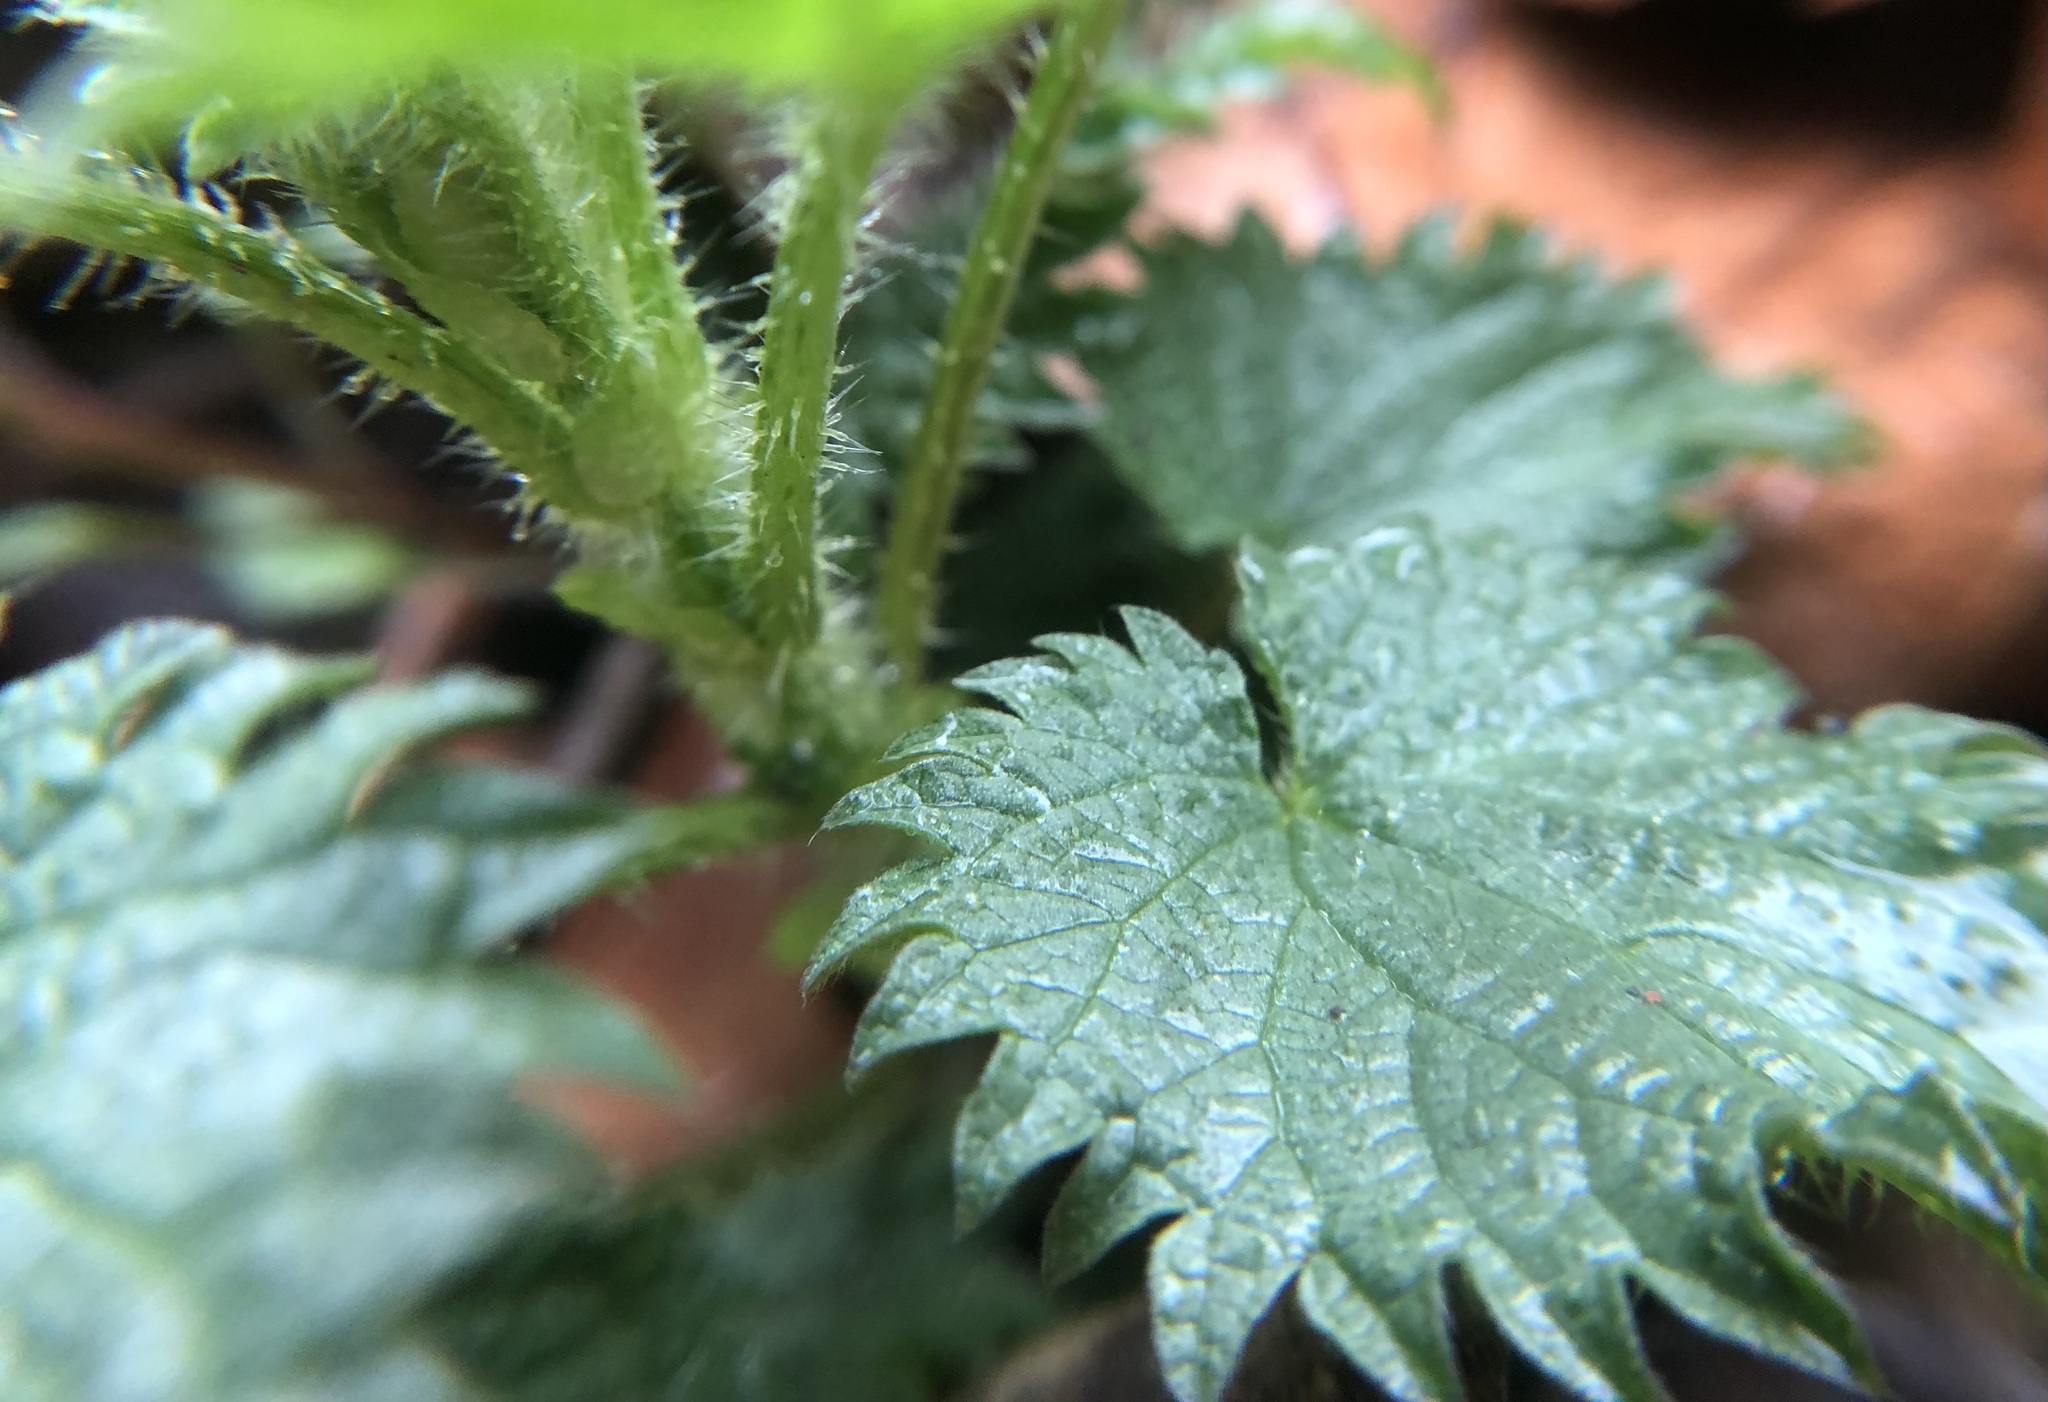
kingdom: Plantae
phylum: Tracheophyta
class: Magnoliopsida
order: Rosales
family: Urticaceae
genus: Urtica
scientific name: Urtica dioica
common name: Common nettle
